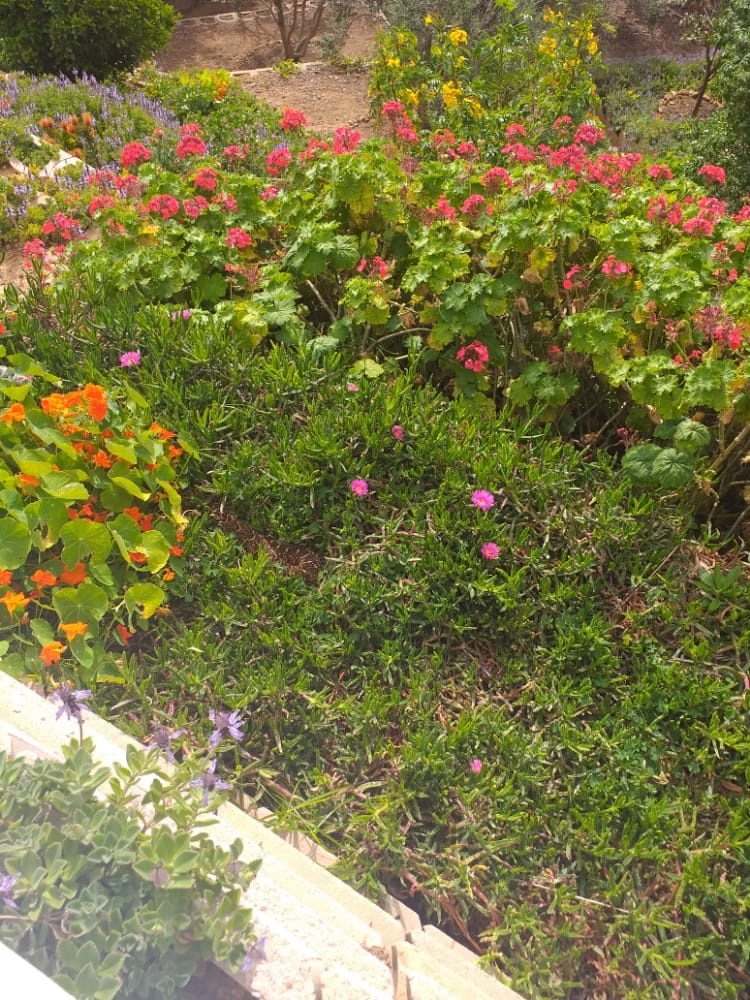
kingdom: Animalia
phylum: Chordata
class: Squamata
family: Viperidae
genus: Bitis
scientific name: Bitis arietans
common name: Puff adder
